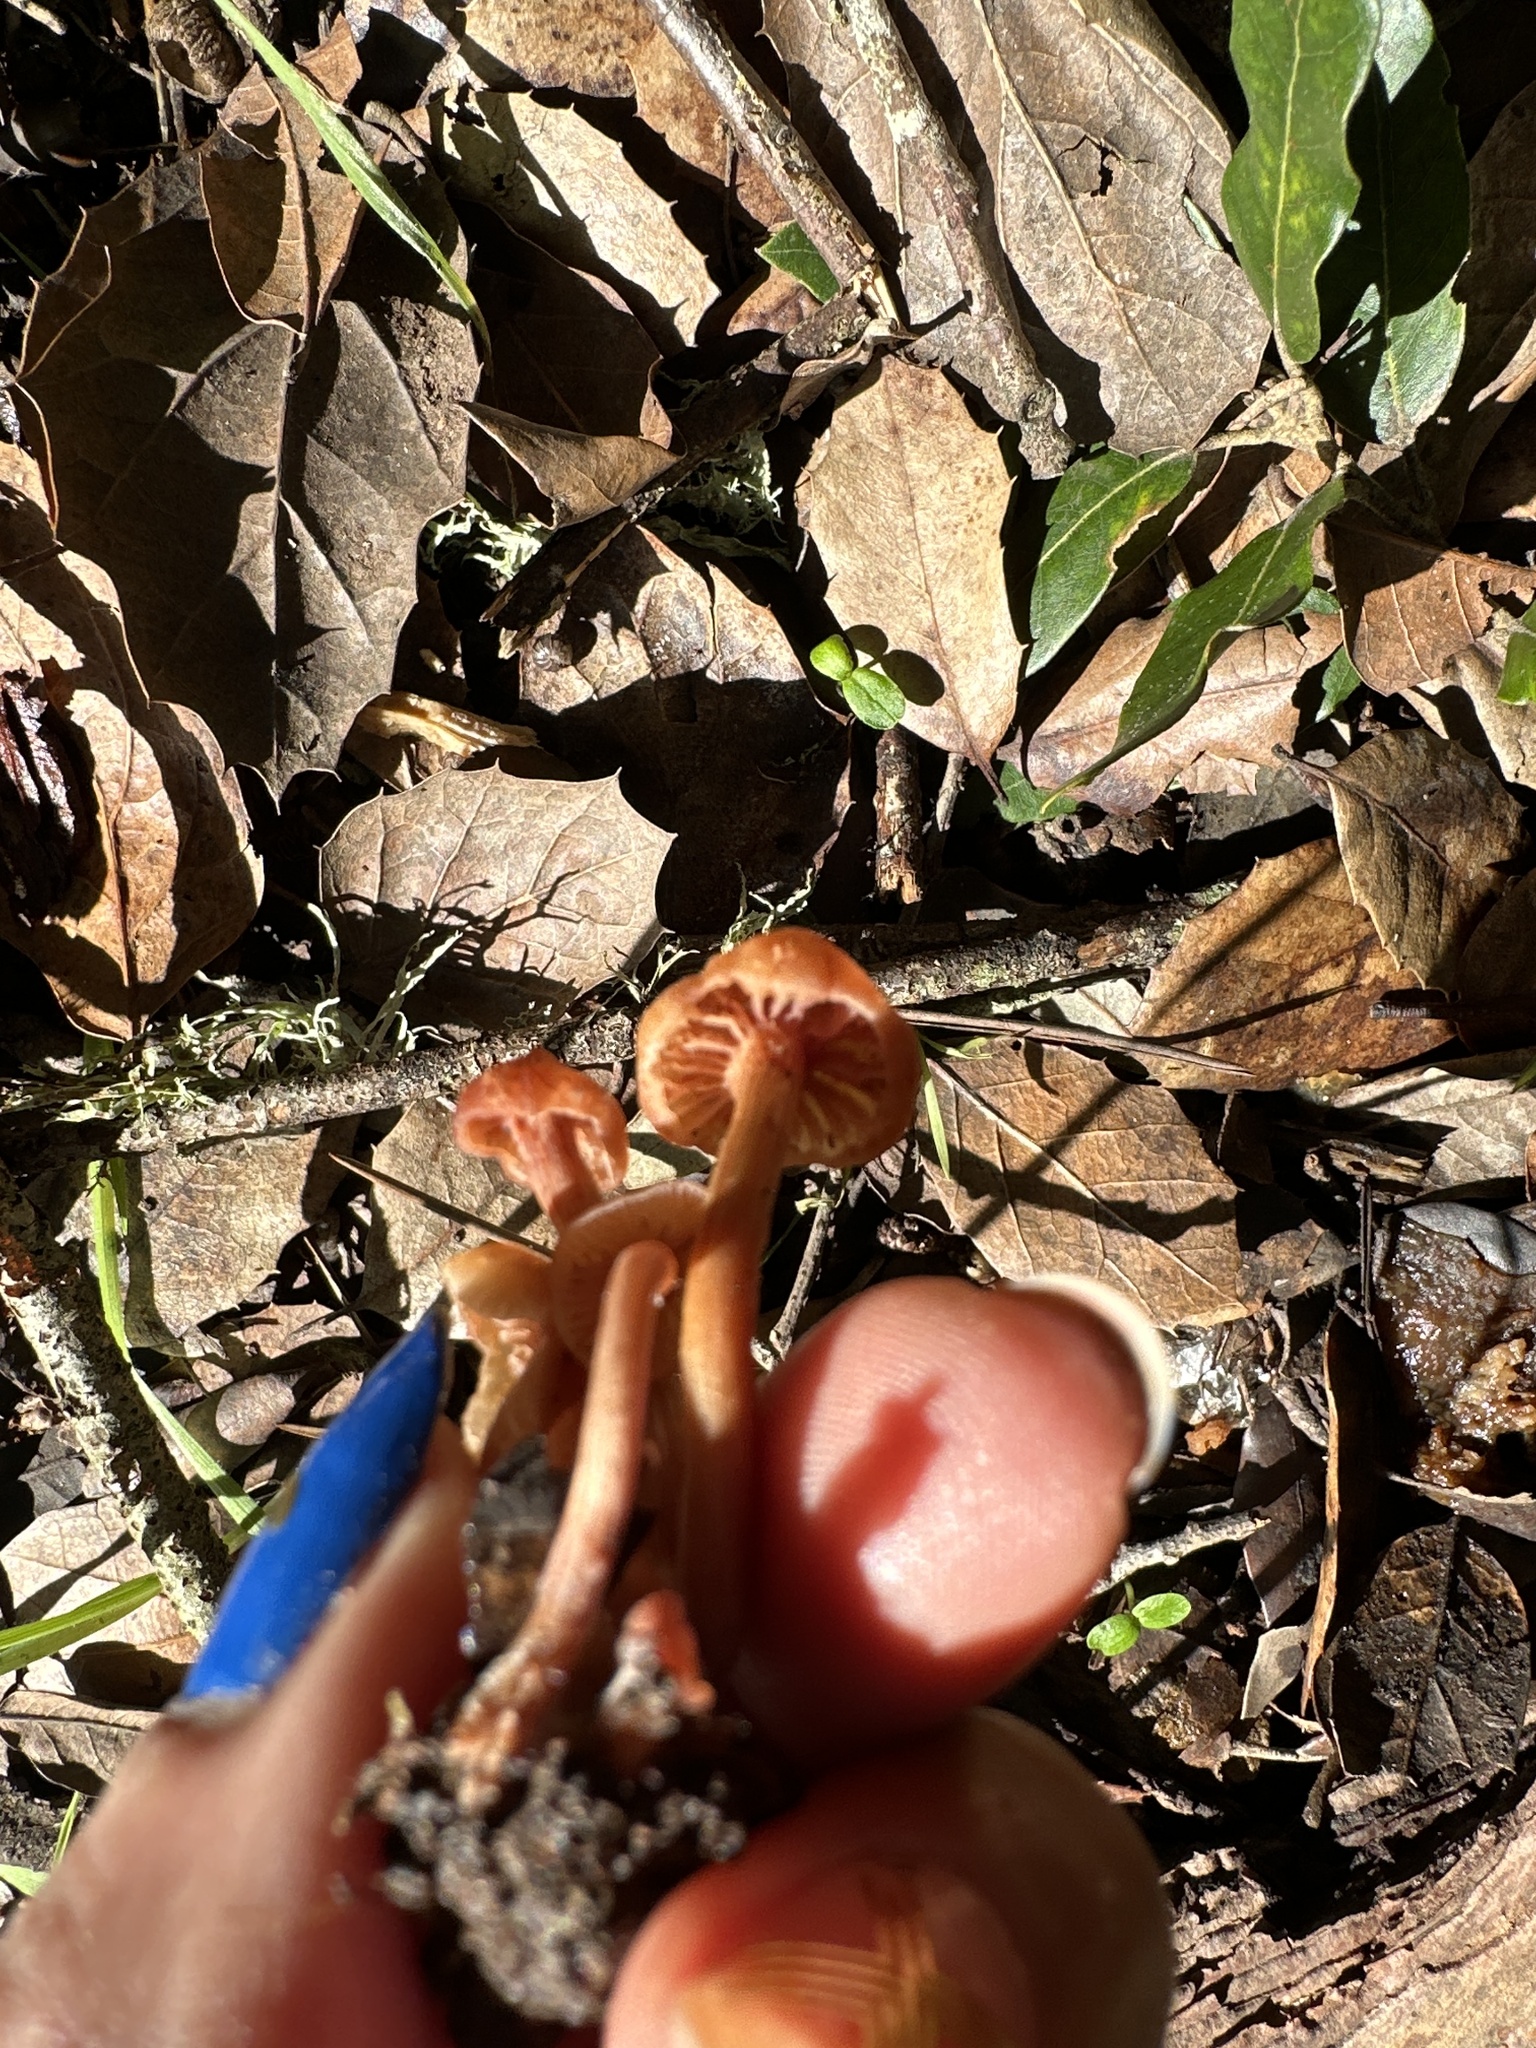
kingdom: Fungi
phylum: Basidiomycota
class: Agaricomycetes
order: Agaricales
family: Hydnangiaceae
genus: Laccaria
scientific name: Laccaria laccata
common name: Deceiver
